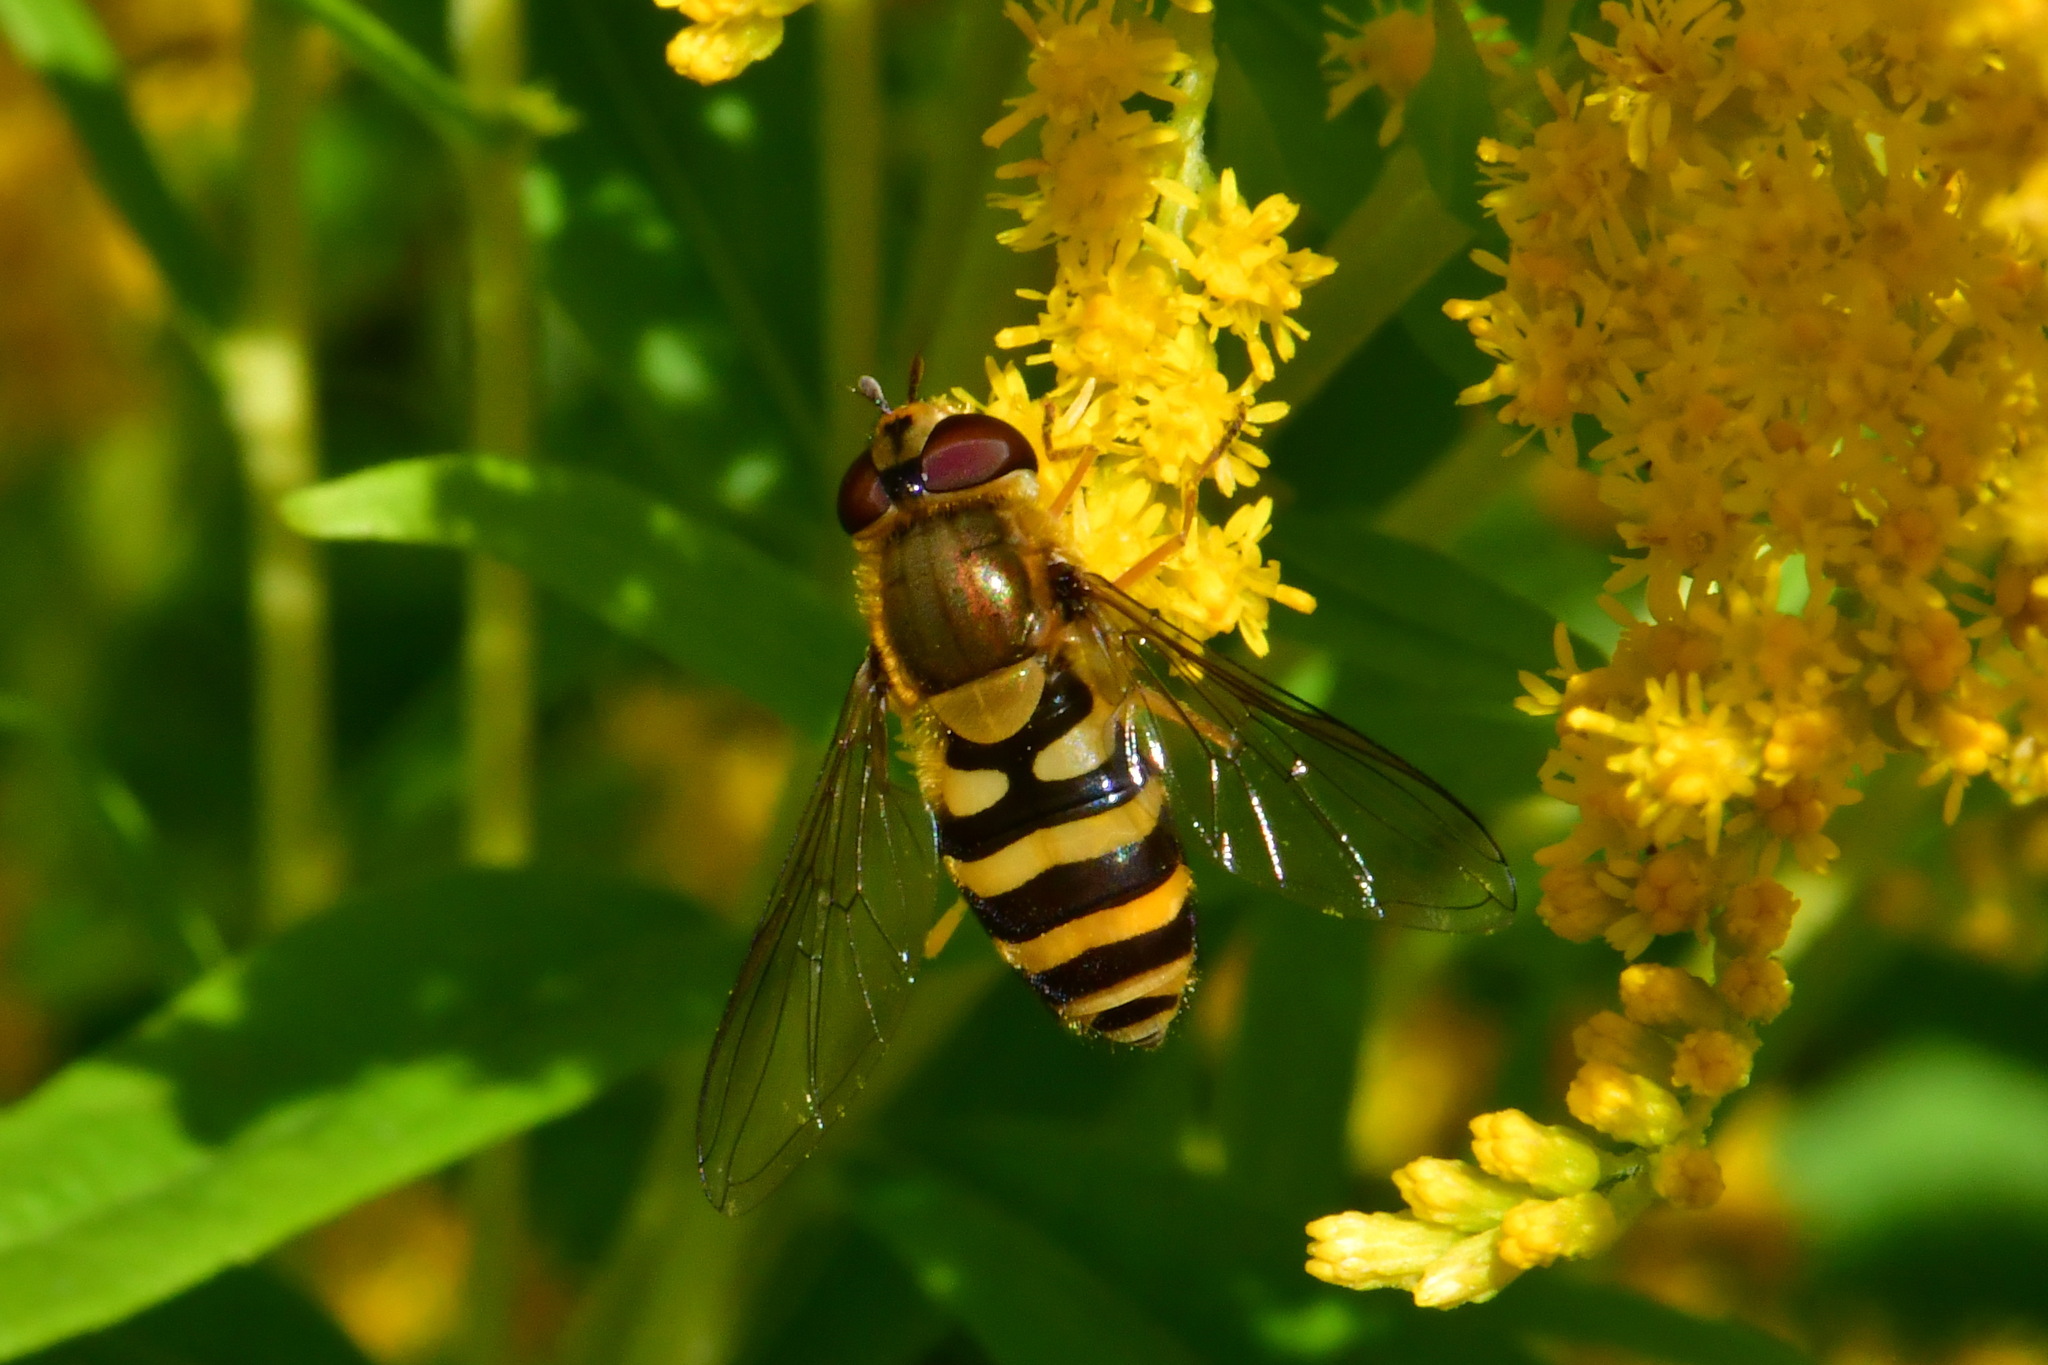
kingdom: Animalia
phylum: Arthropoda
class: Insecta
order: Diptera
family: Syrphidae
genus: Syrphus
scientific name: Syrphus ribesii
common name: Common flower fly
